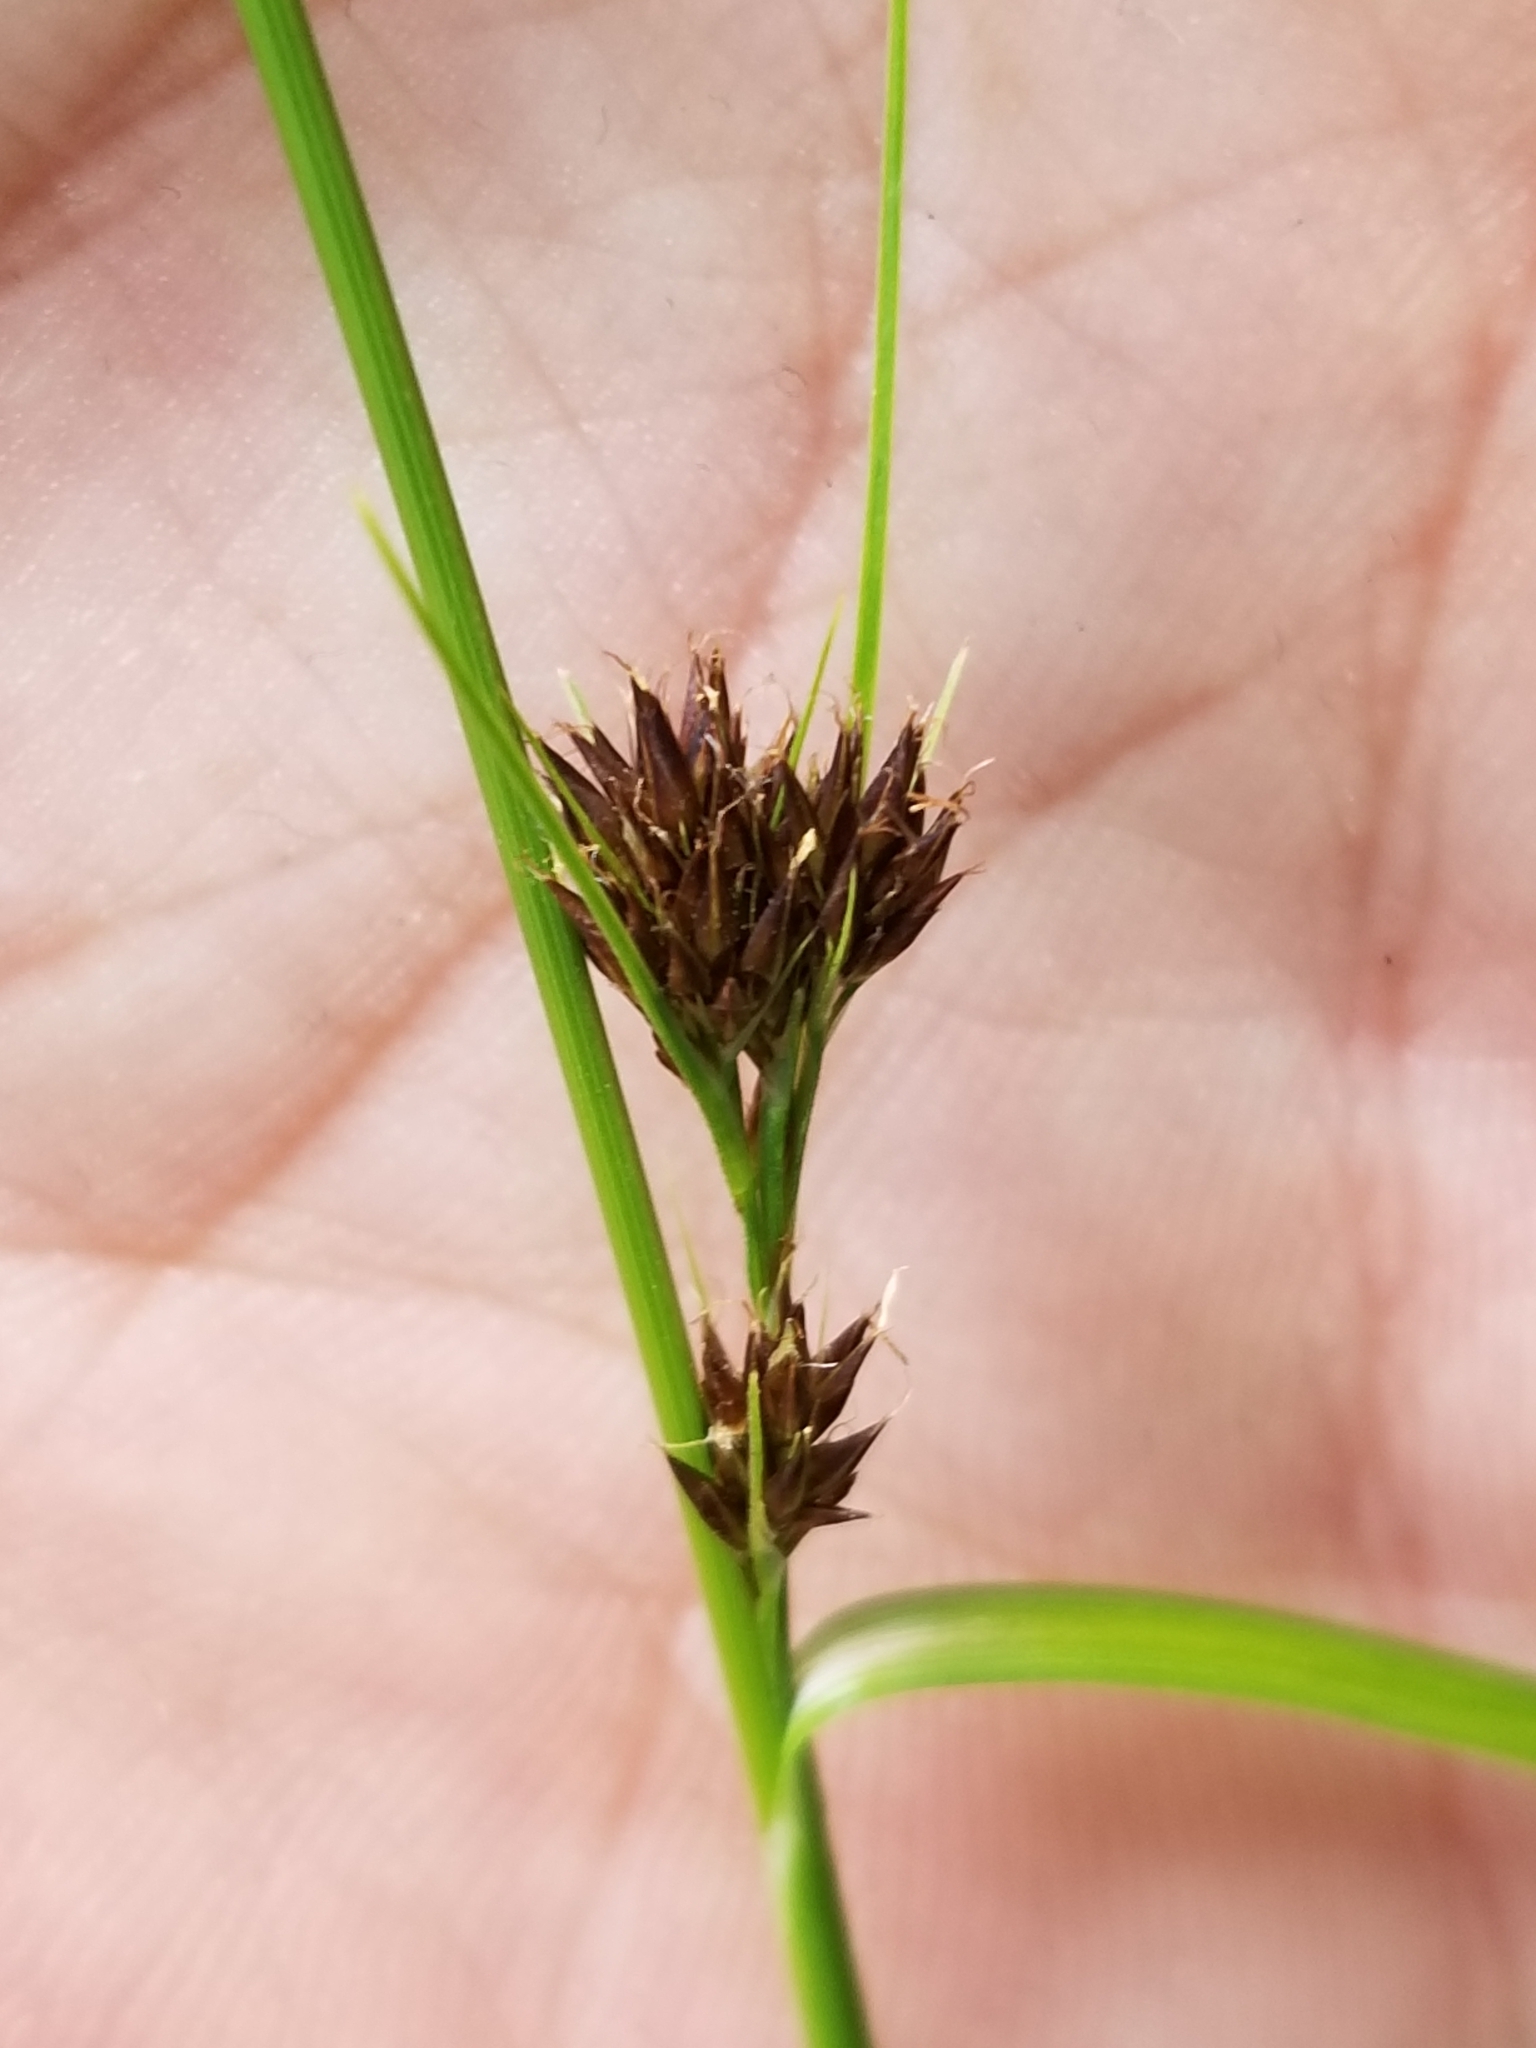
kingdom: Plantae
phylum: Tracheophyta
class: Liliopsida
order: Poales
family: Cyperaceae
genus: Rhynchospora
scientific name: Rhynchospora capitellata
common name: Brownish beaksedge
